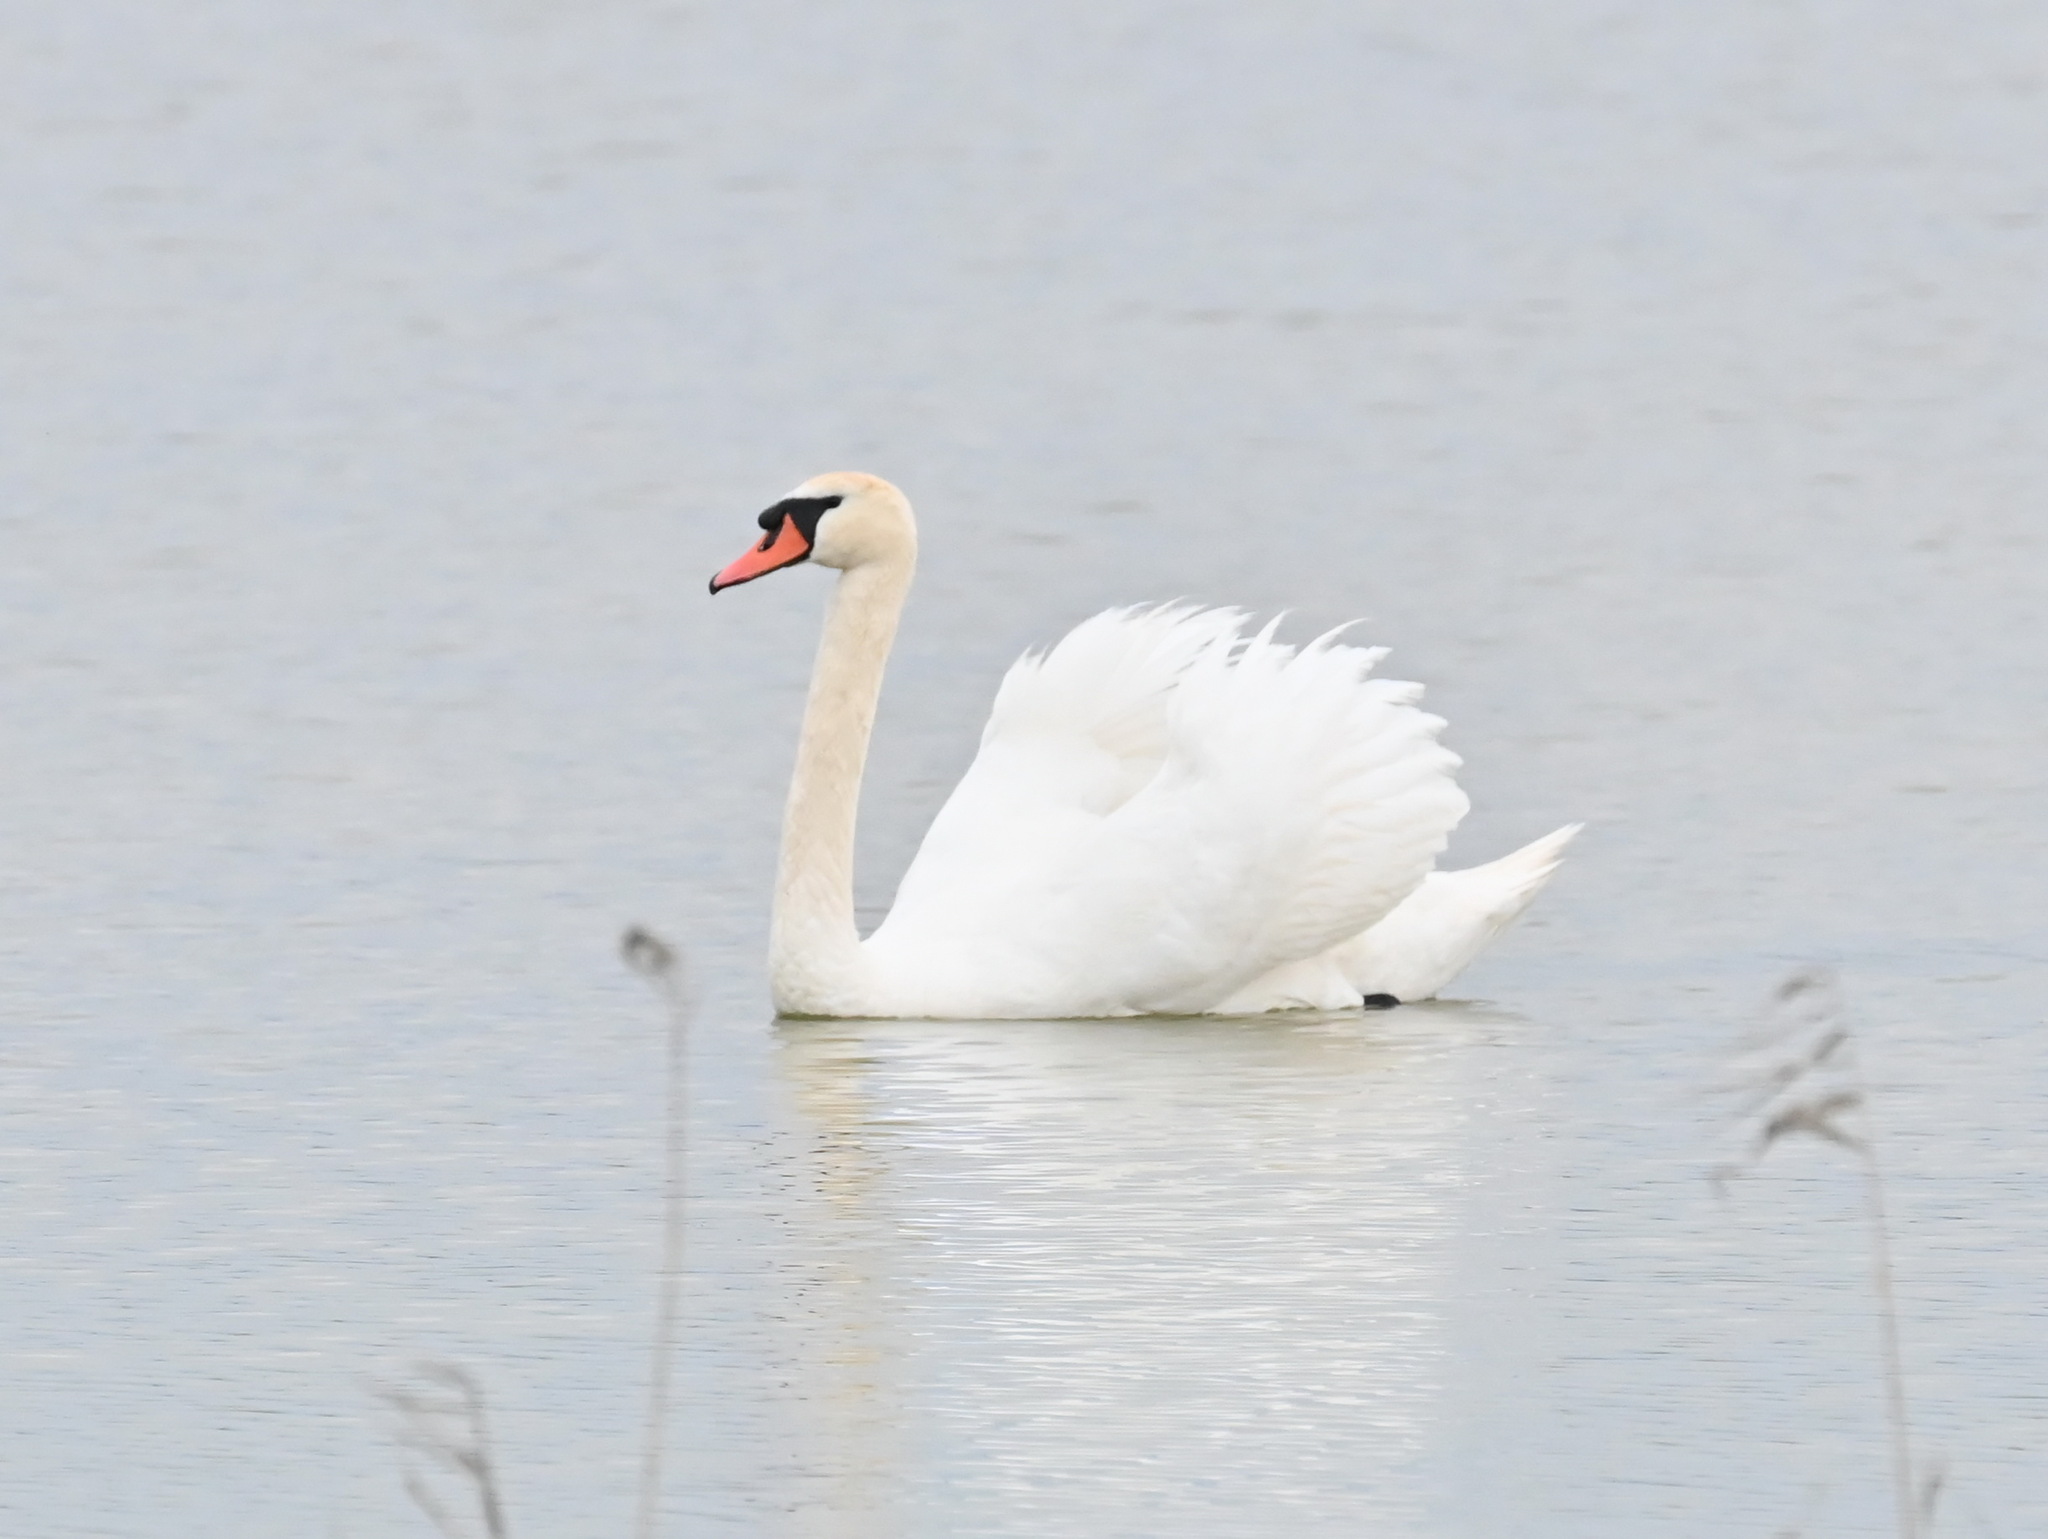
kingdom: Animalia
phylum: Chordata
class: Aves
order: Anseriformes
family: Anatidae
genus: Cygnus
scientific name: Cygnus olor
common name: Mute swan
